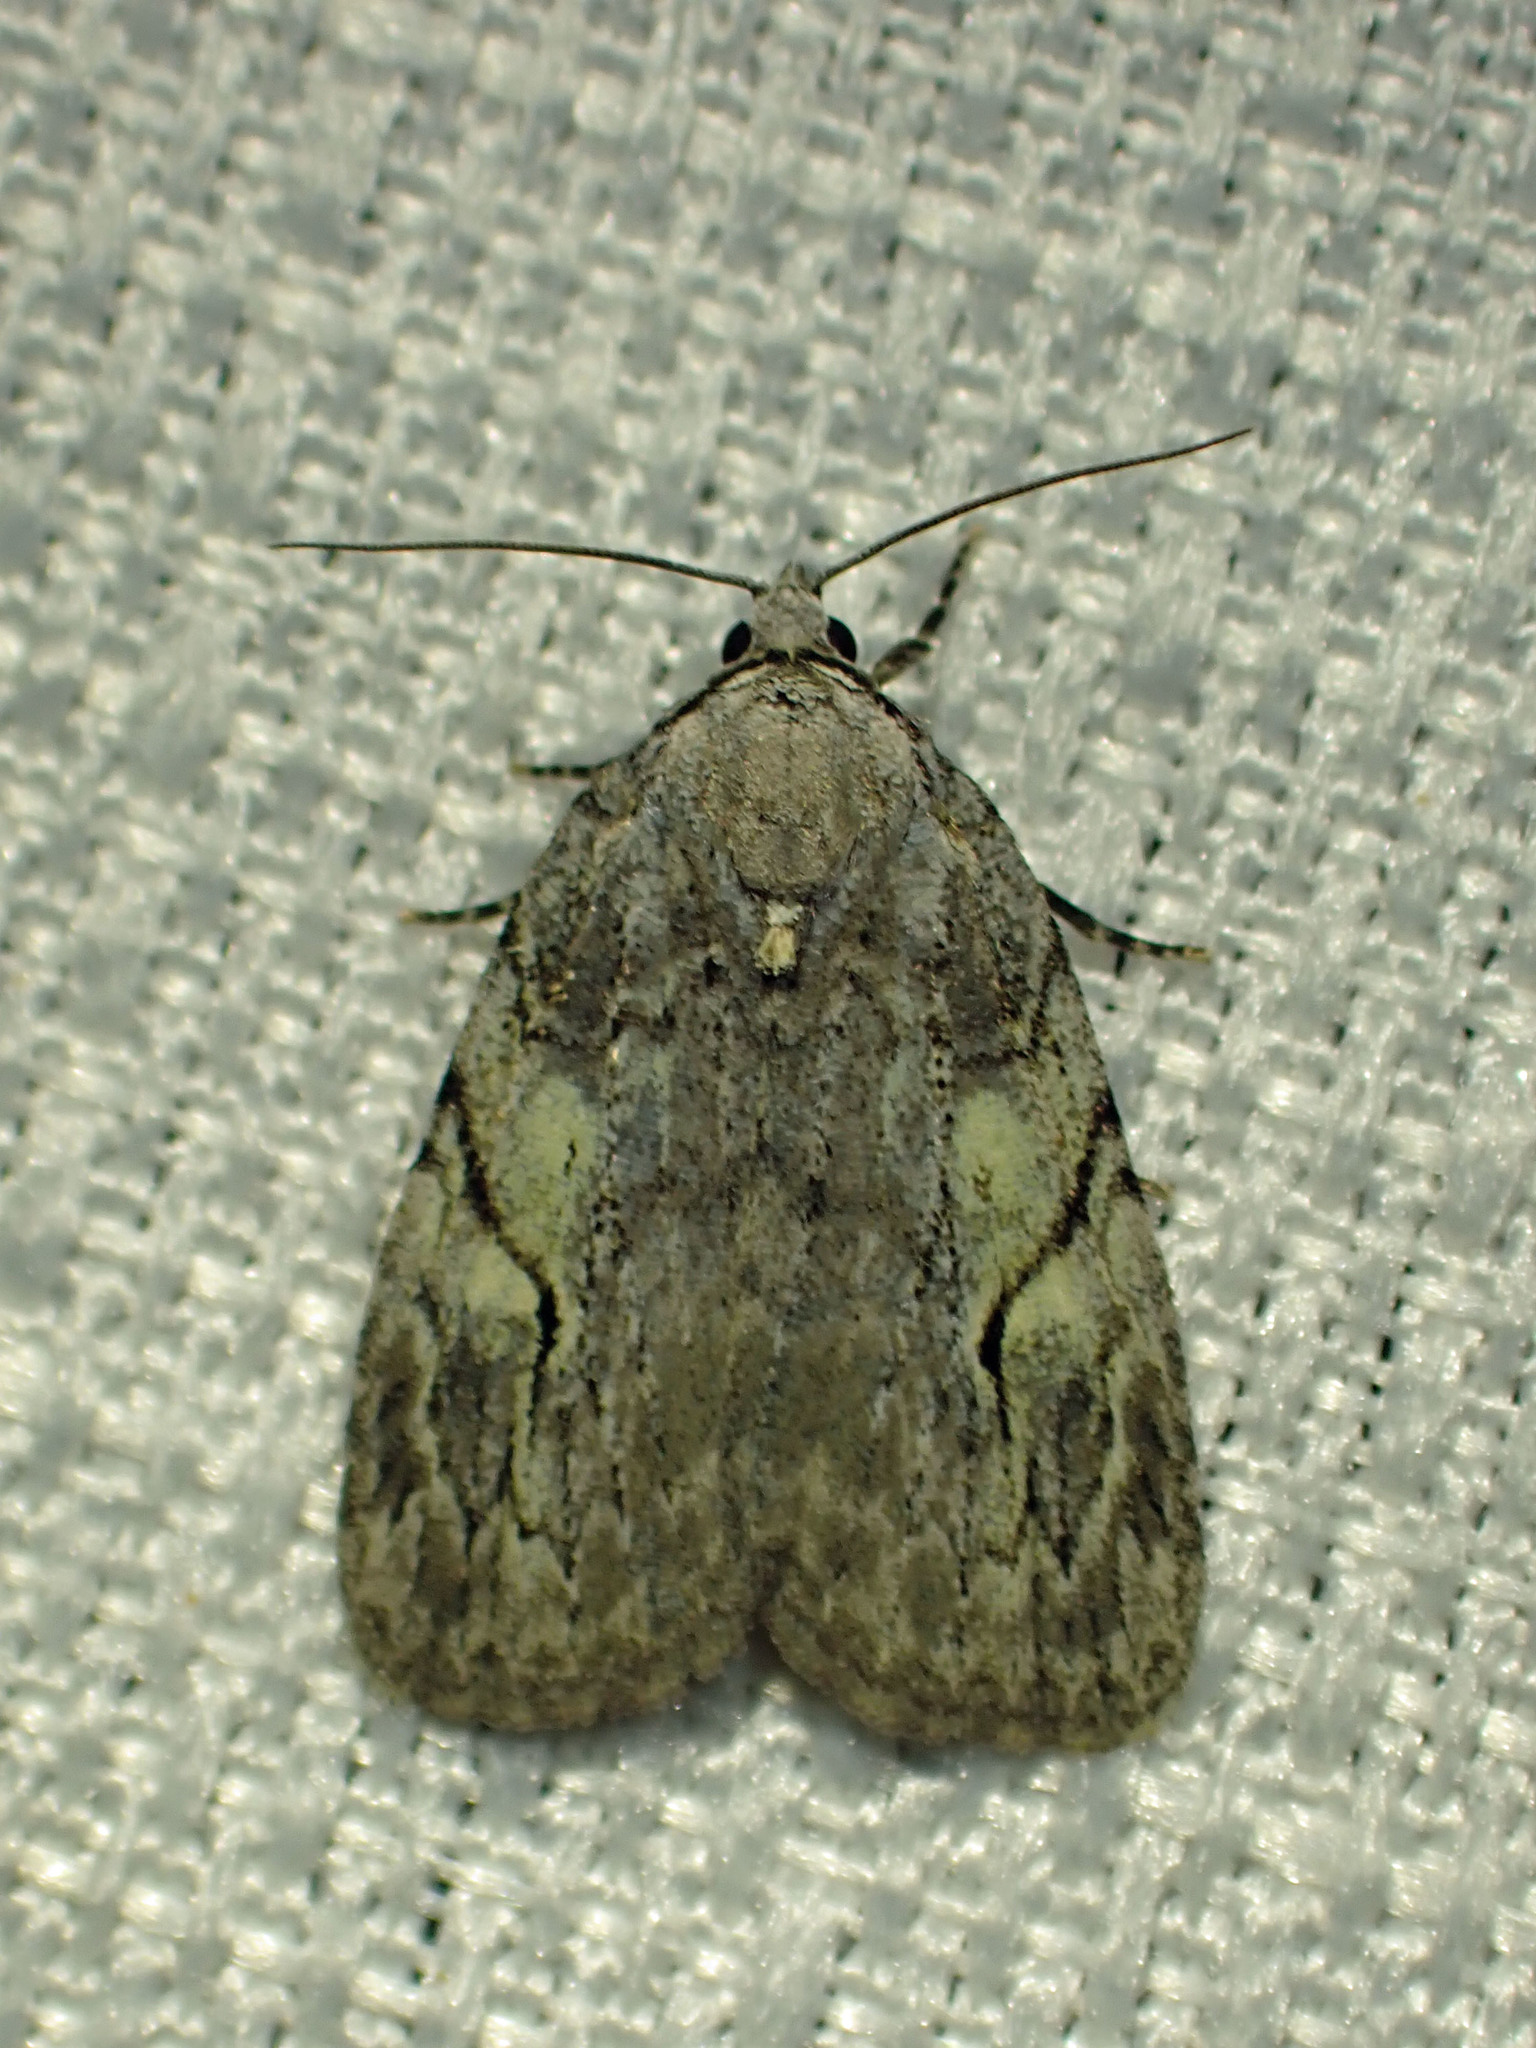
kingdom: Animalia
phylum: Arthropoda
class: Insecta
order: Lepidoptera
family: Noctuidae
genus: Balsa
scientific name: Balsa labecula
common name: White-blotched balsa moth
